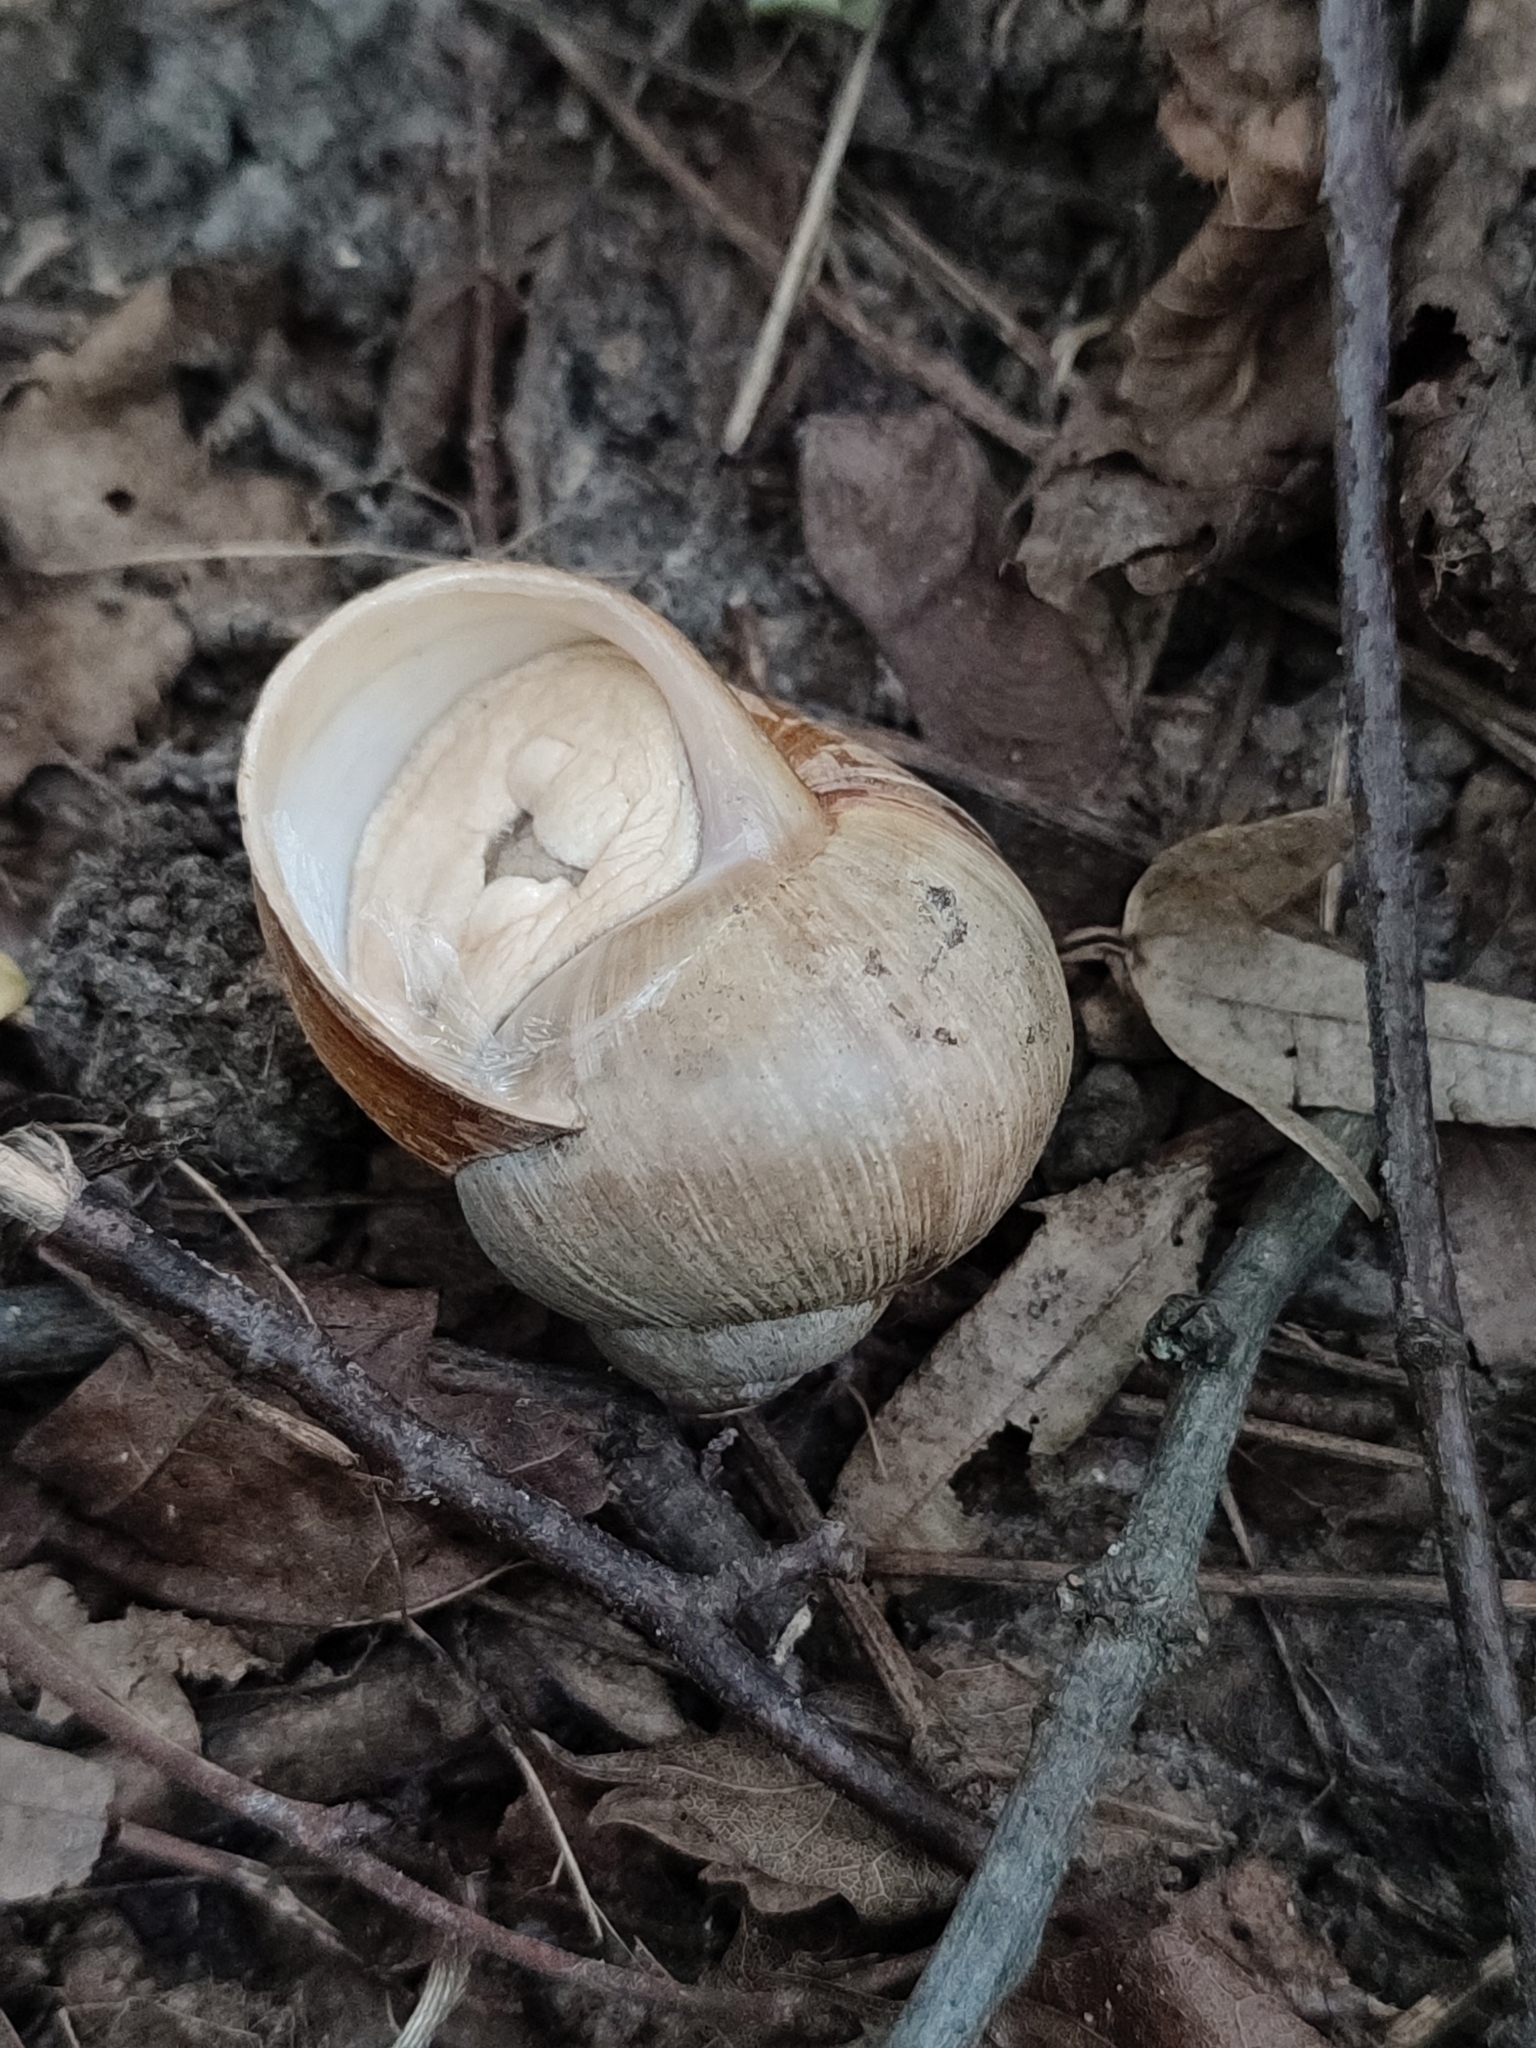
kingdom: Animalia
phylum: Mollusca
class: Gastropoda
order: Stylommatophora
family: Helicidae
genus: Helix
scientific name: Helix pomatia
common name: Roman snail
